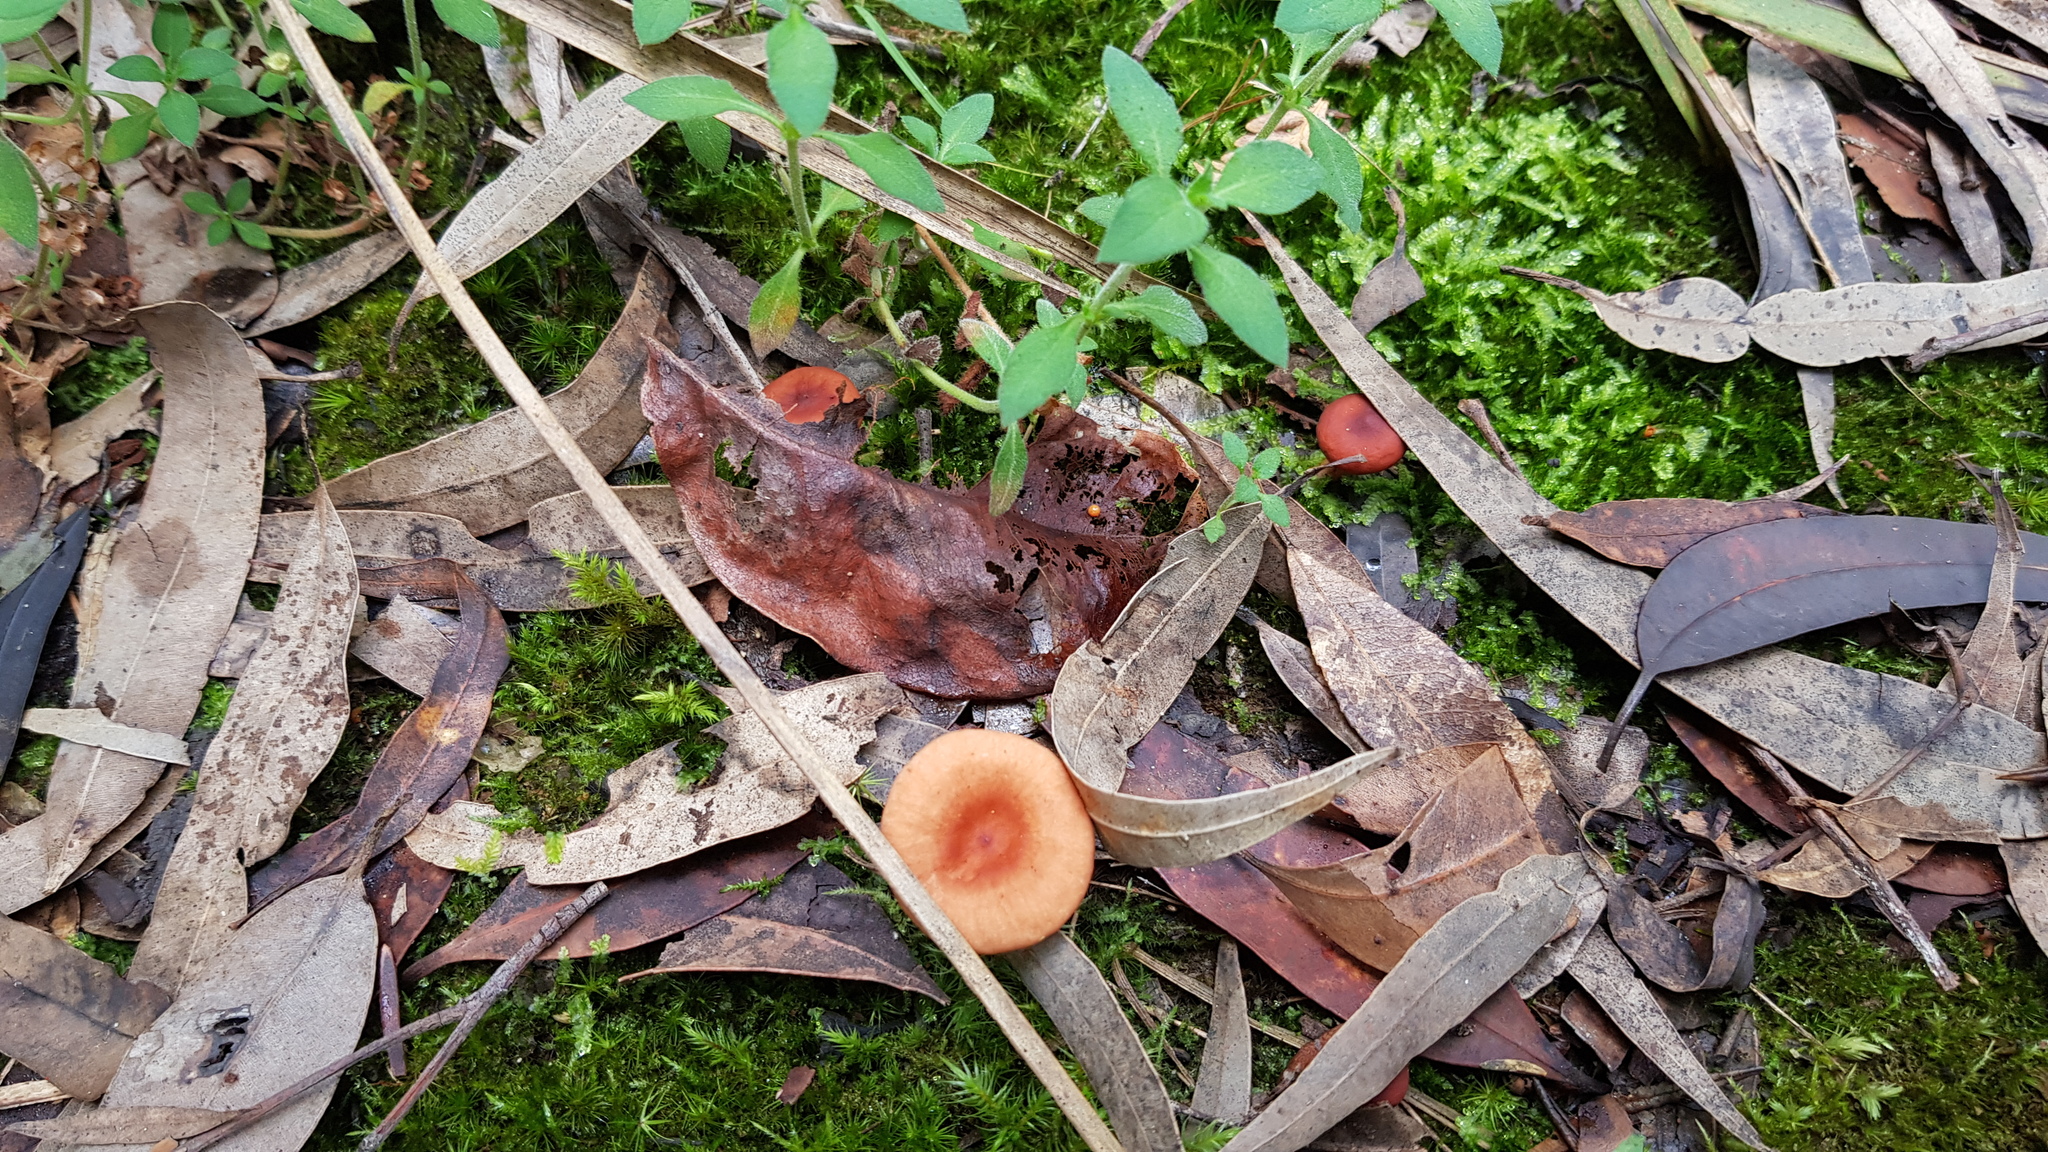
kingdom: Fungi
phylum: Basidiomycota
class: Agaricomycetes
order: Russulales
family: Russulaceae
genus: Lactarius
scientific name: Lactarius eucalypti
